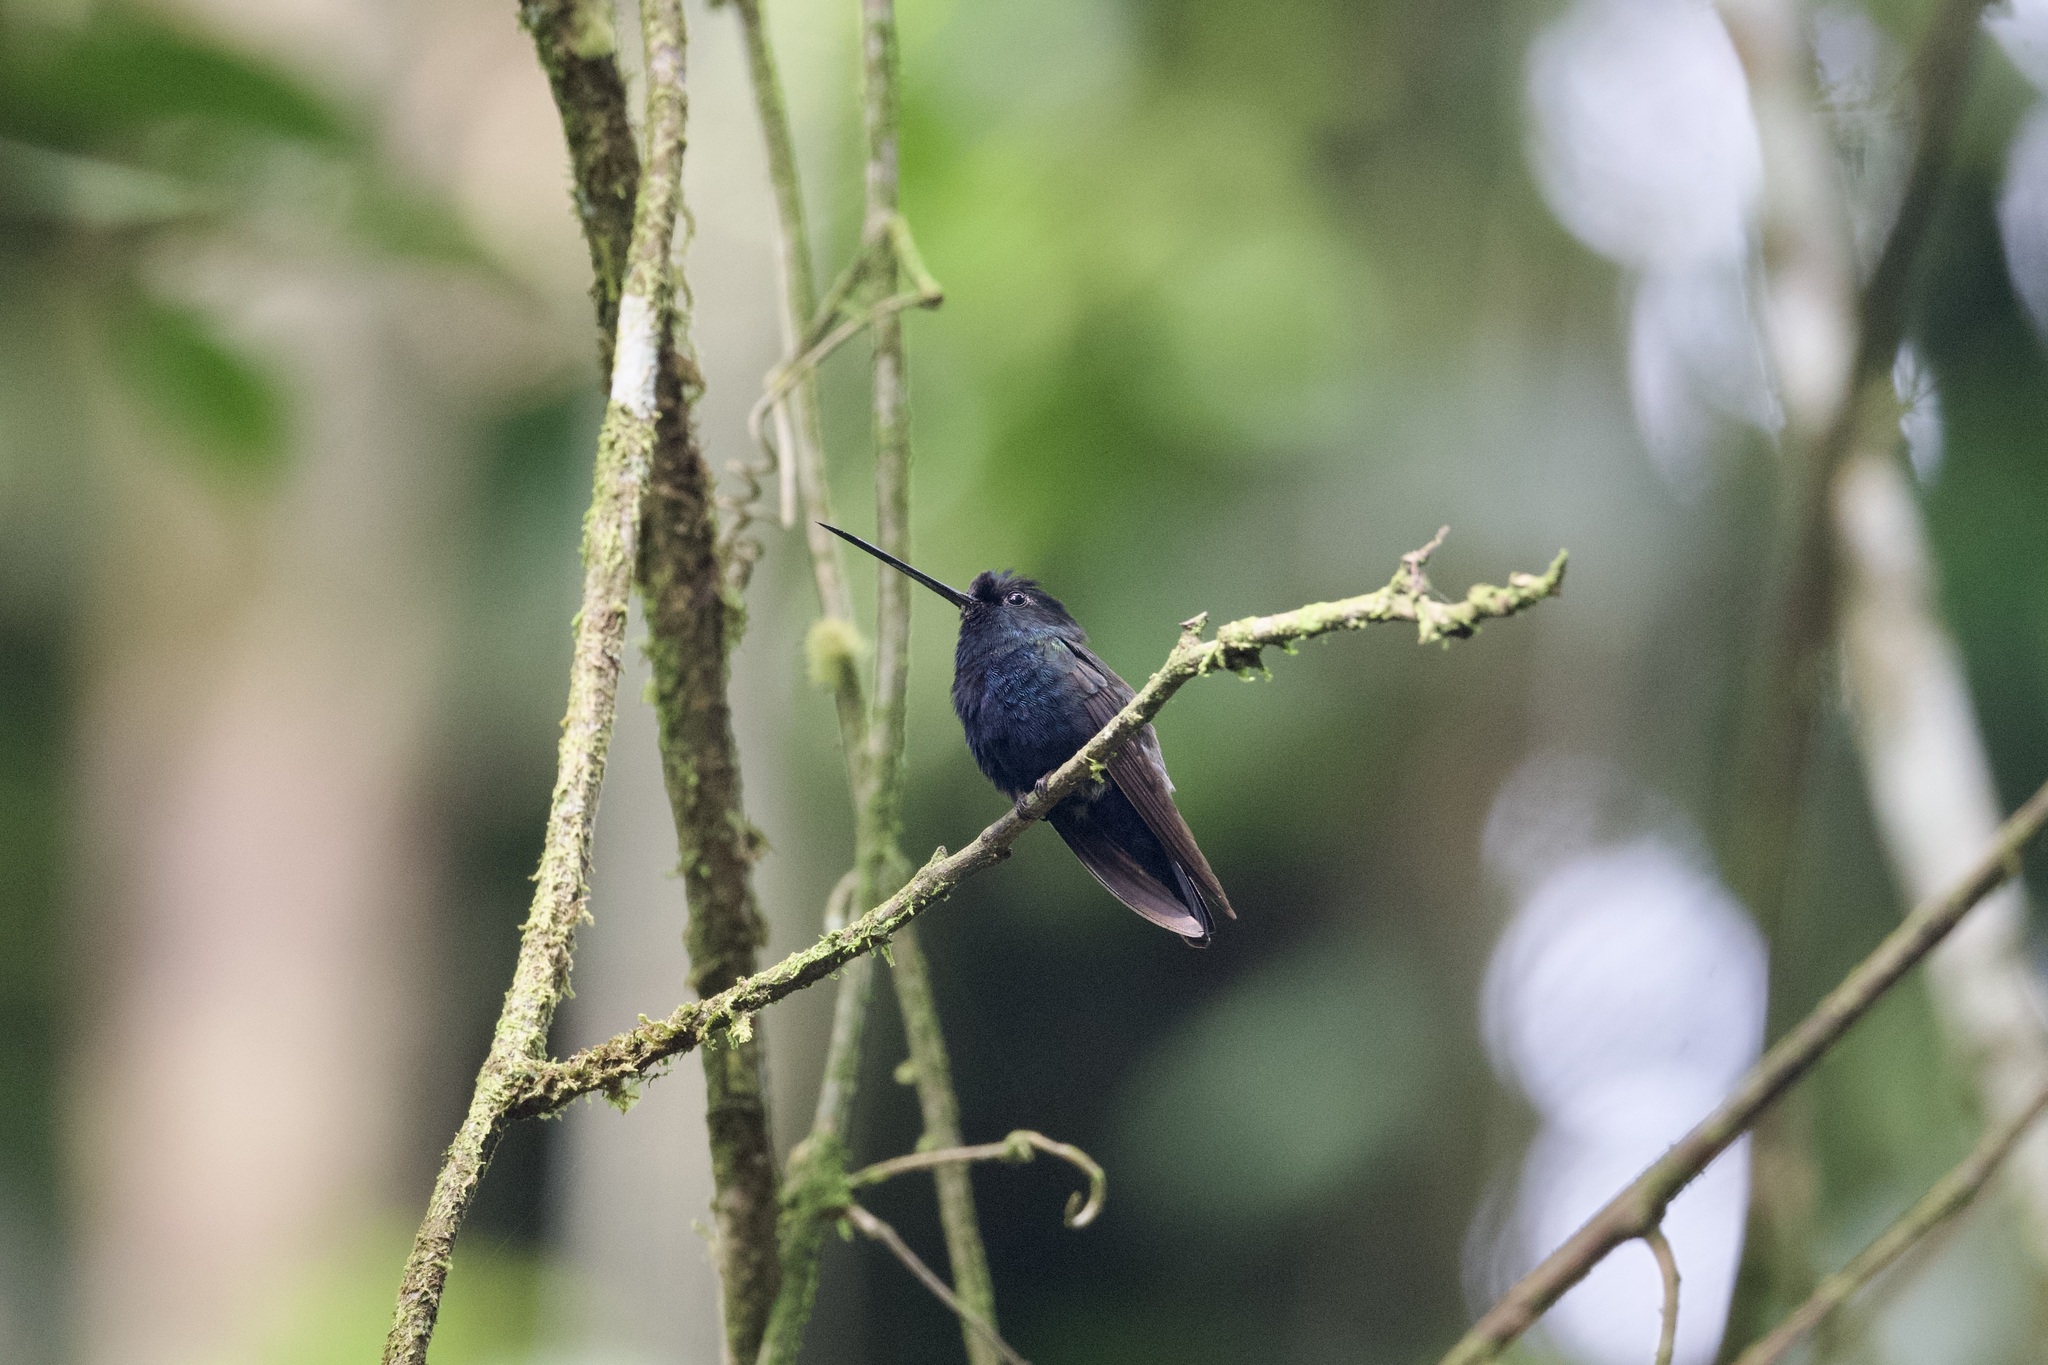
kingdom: Animalia
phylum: Chordata
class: Aves
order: Apodiformes
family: Trochilidae
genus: Doryfera
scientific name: Doryfera johannae
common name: Blue-fronted lancebill
